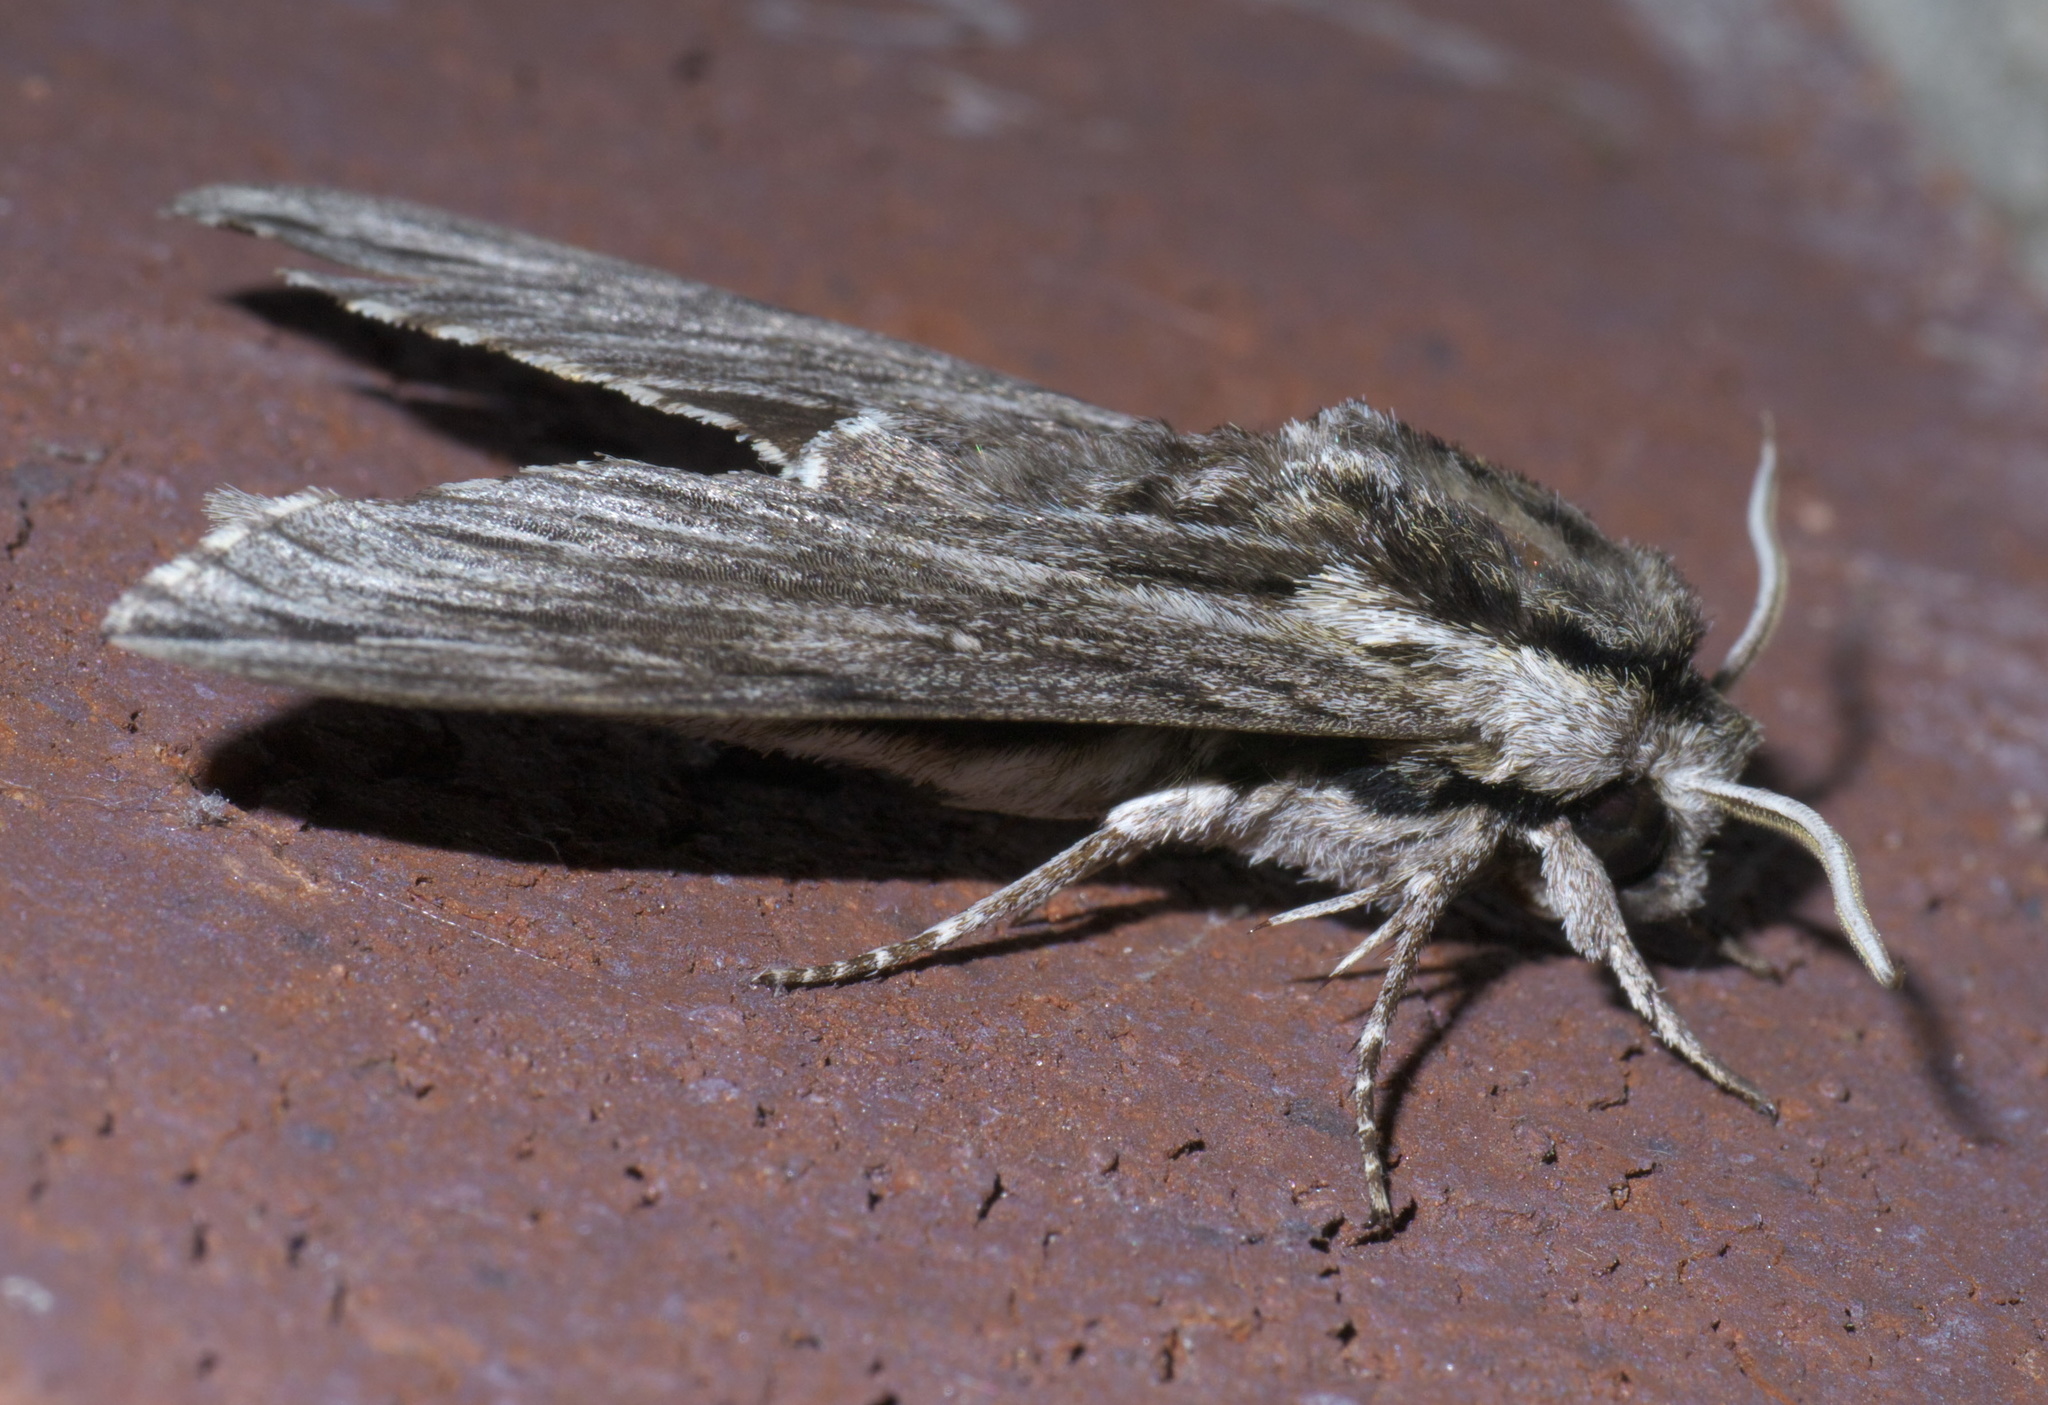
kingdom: Animalia
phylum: Arthropoda
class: Insecta
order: Lepidoptera
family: Sphingidae
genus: Paratrea
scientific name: Paratrea plebeja
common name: Plebian sphinx
